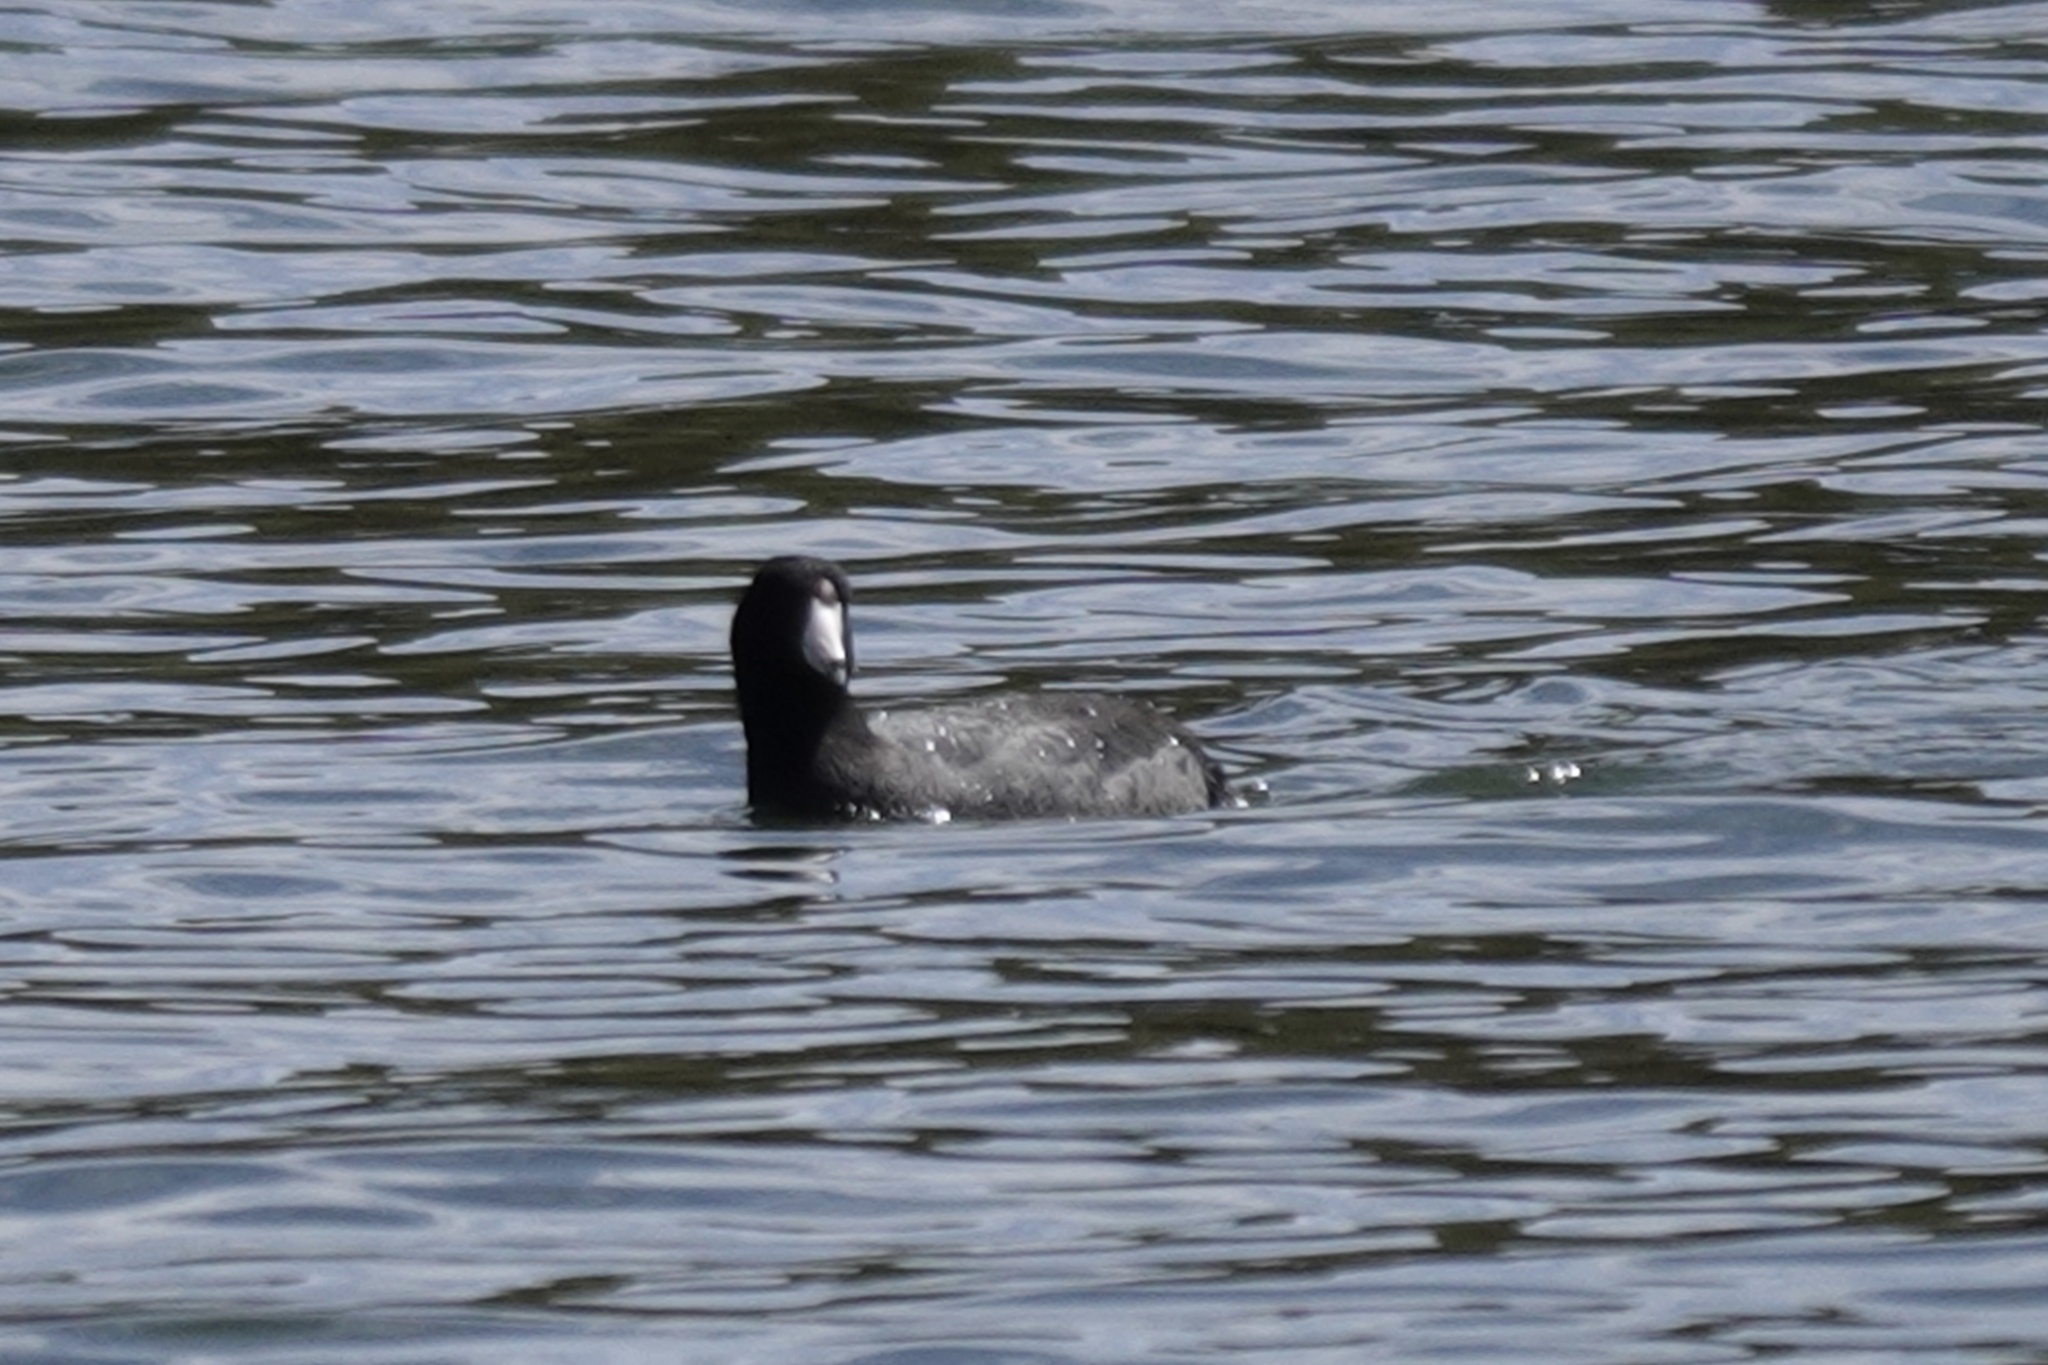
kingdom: Animalia
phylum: Chordata
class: Aves
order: Gruiformes
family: Rallidae
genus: Fulica
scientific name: Fulica americana
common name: American coot
